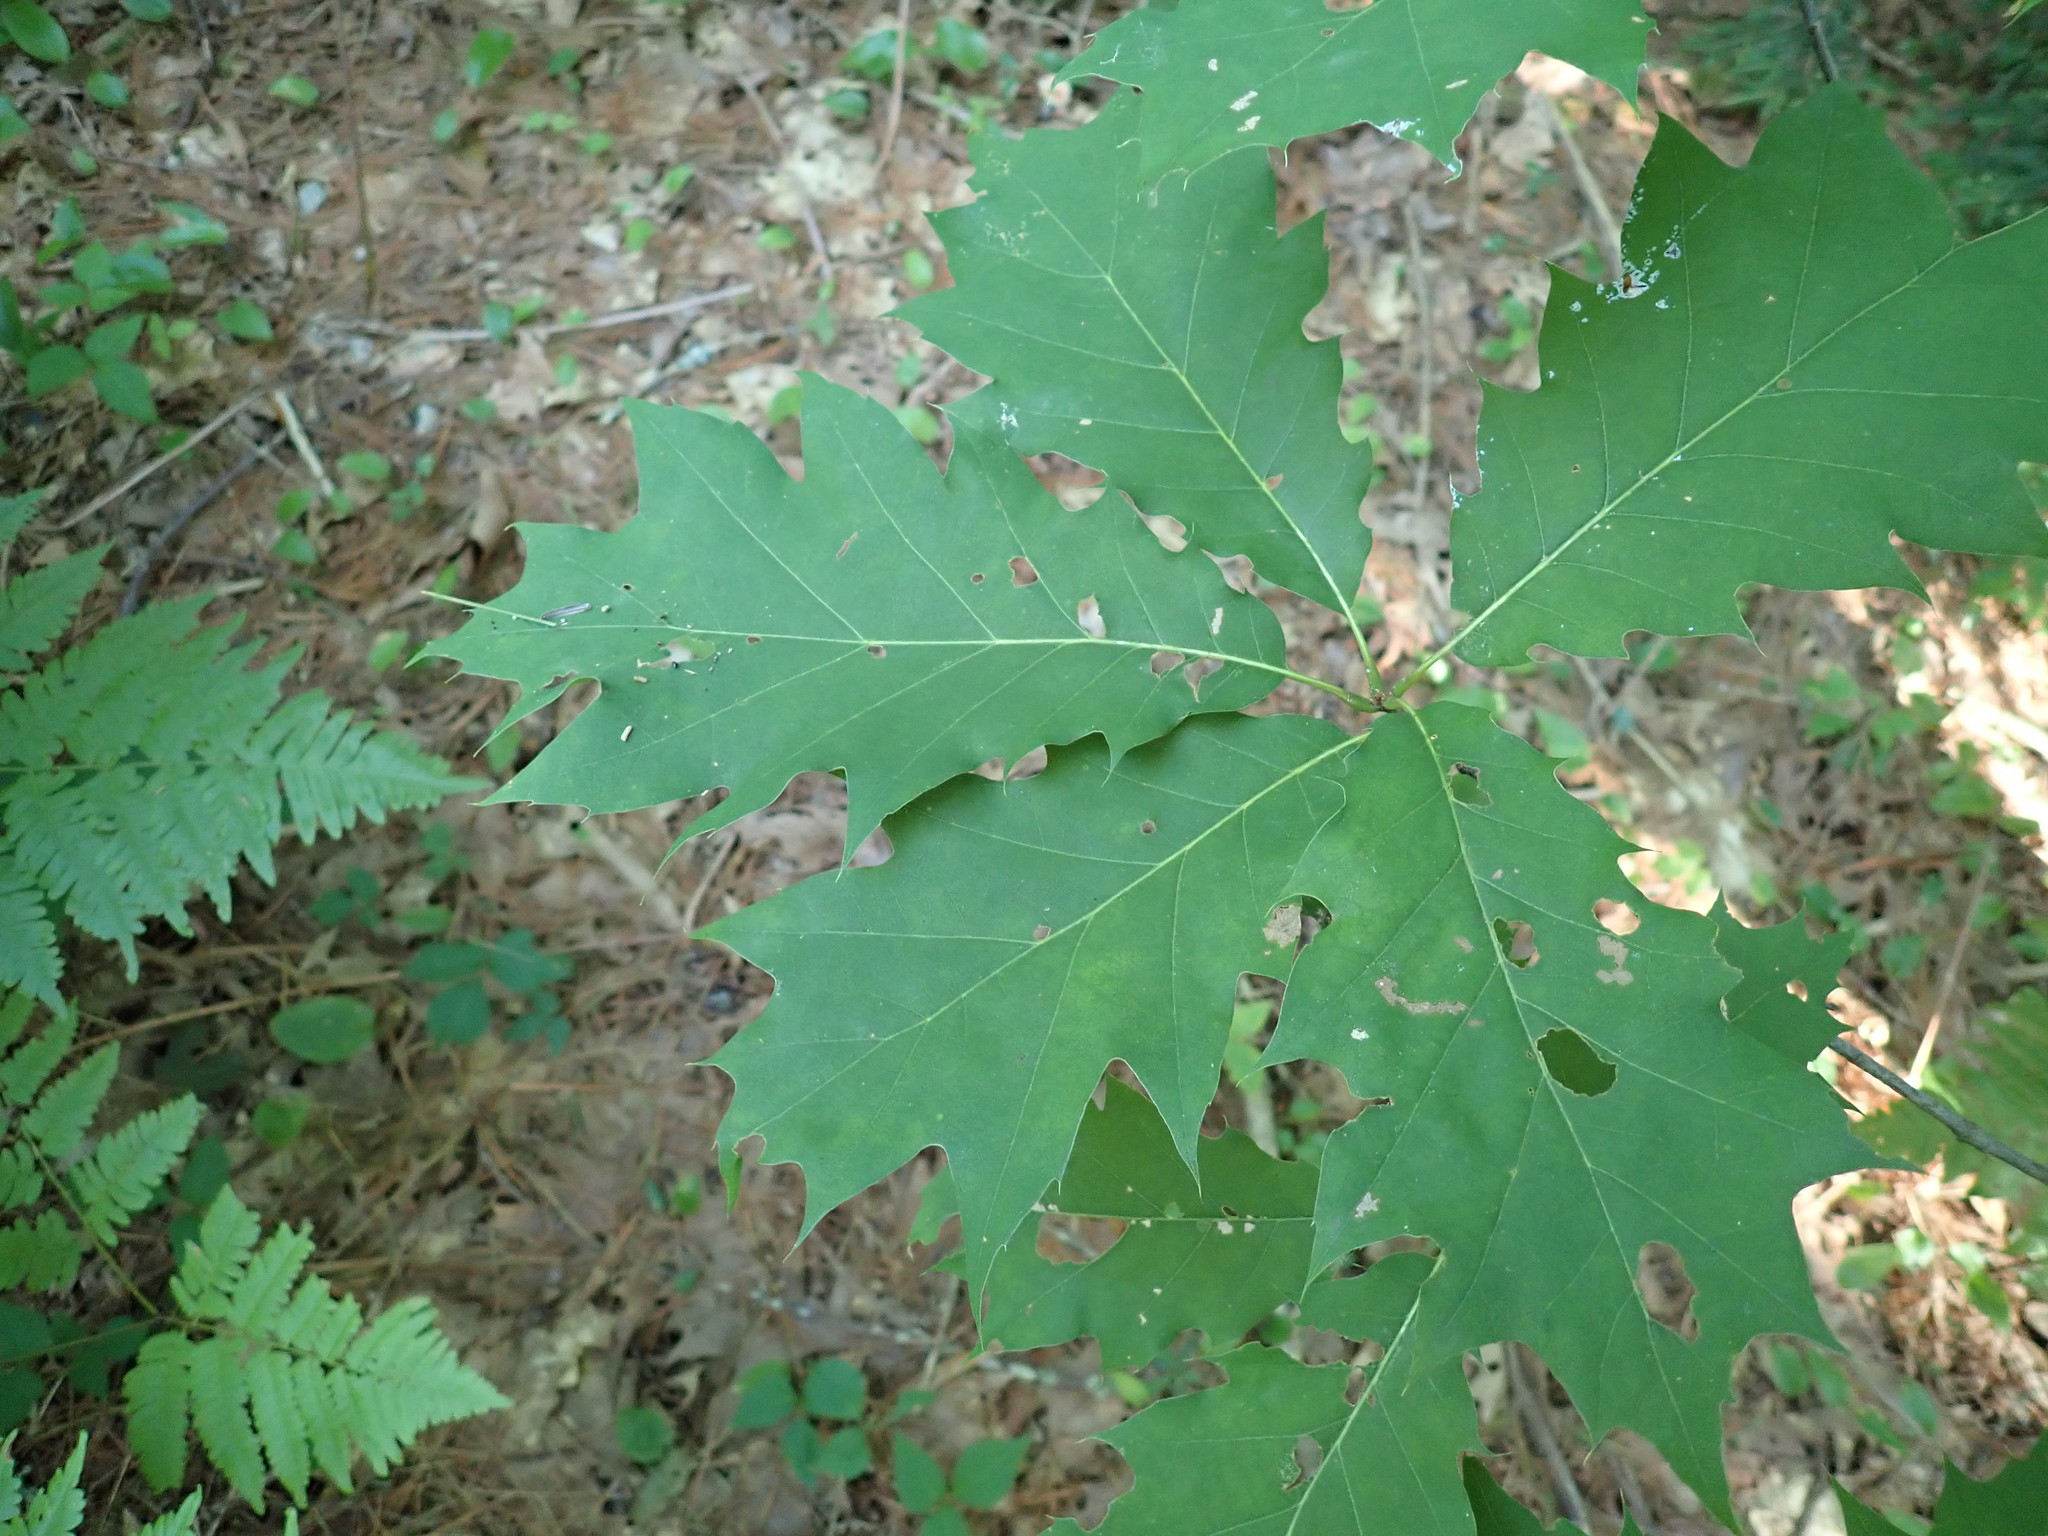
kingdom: Plantae
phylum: Tracheophyta
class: Magnoliopsida
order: Fagales
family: Fagaceae
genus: Quercus
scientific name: Quercus rubra
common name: Red oak
